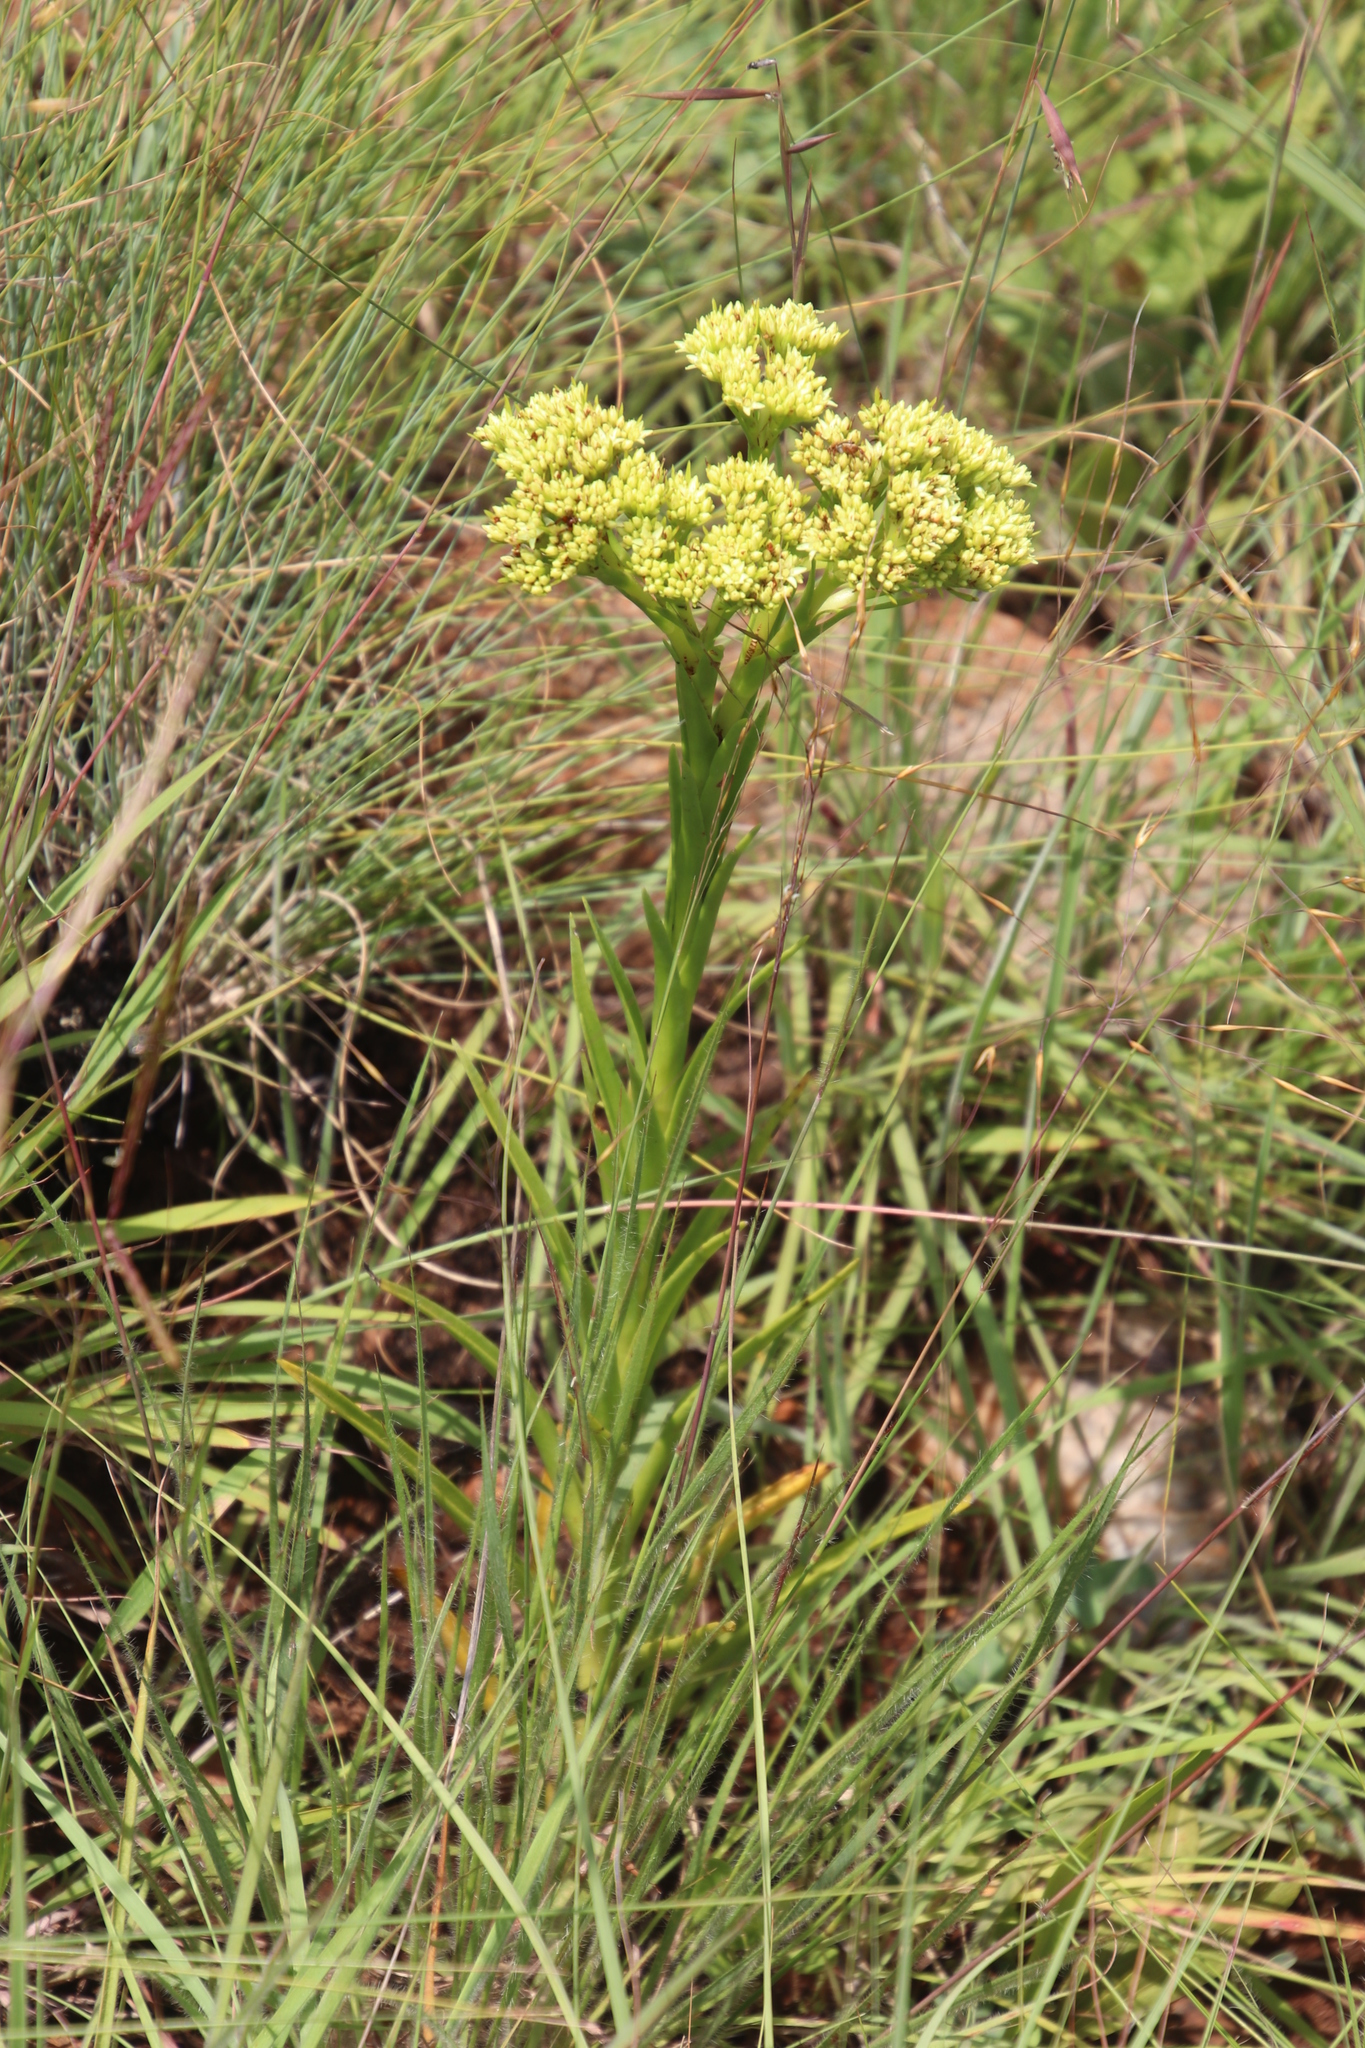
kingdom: Plantae
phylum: Tracheophyta
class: Magnoliopsida
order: Saxifragales
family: Crassulaceae
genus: Crassula
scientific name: Crassula vaginata
